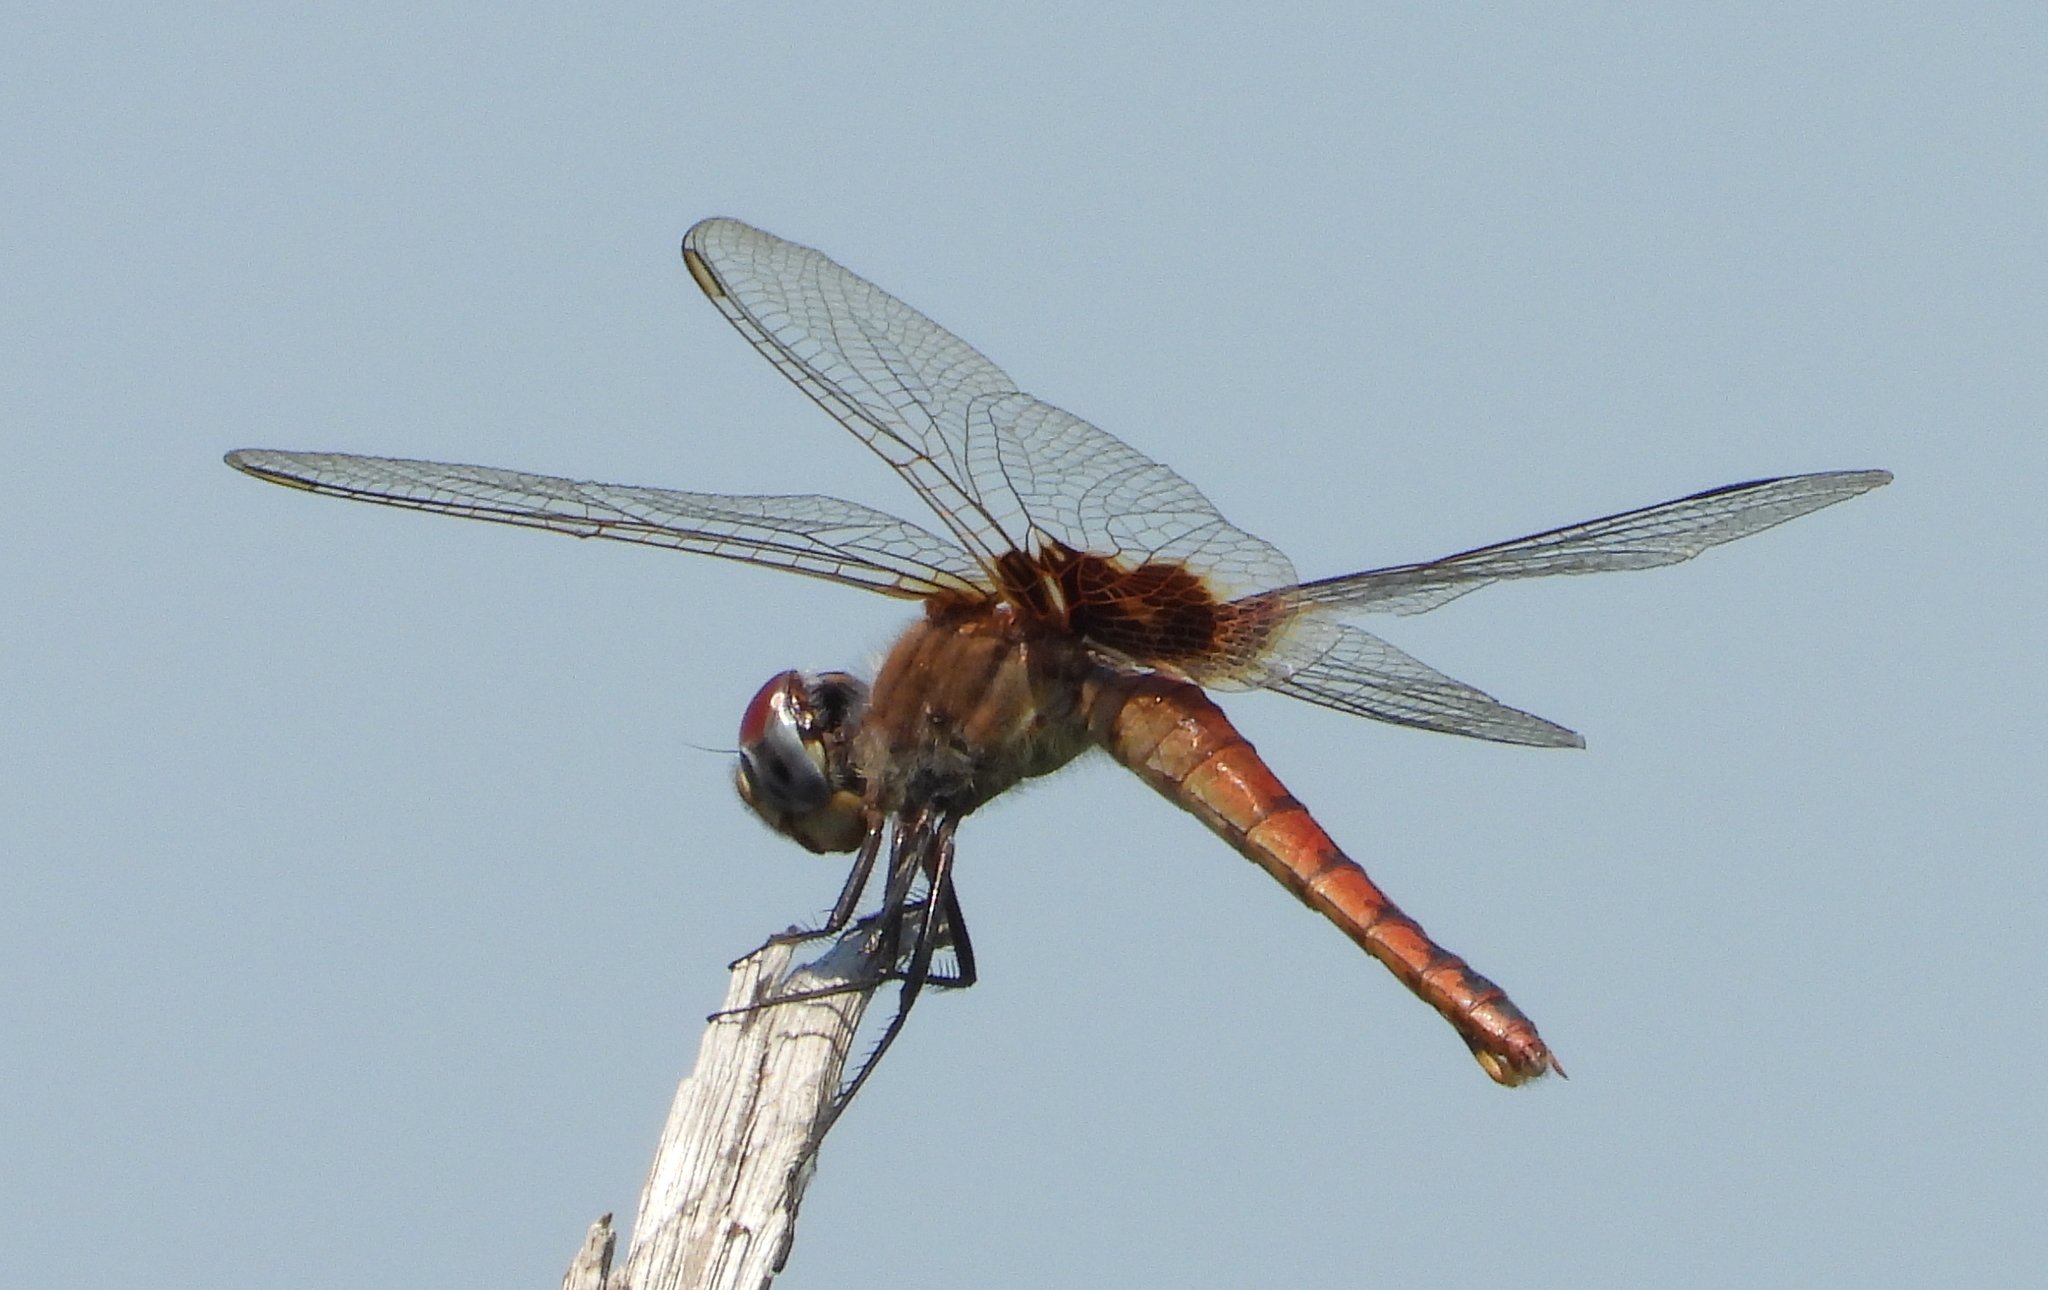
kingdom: Animalia
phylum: Arthropoda
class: Insecta
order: Odonata
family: Libellulidae
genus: Urothemis
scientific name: Urothemis assignata
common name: Red basker
